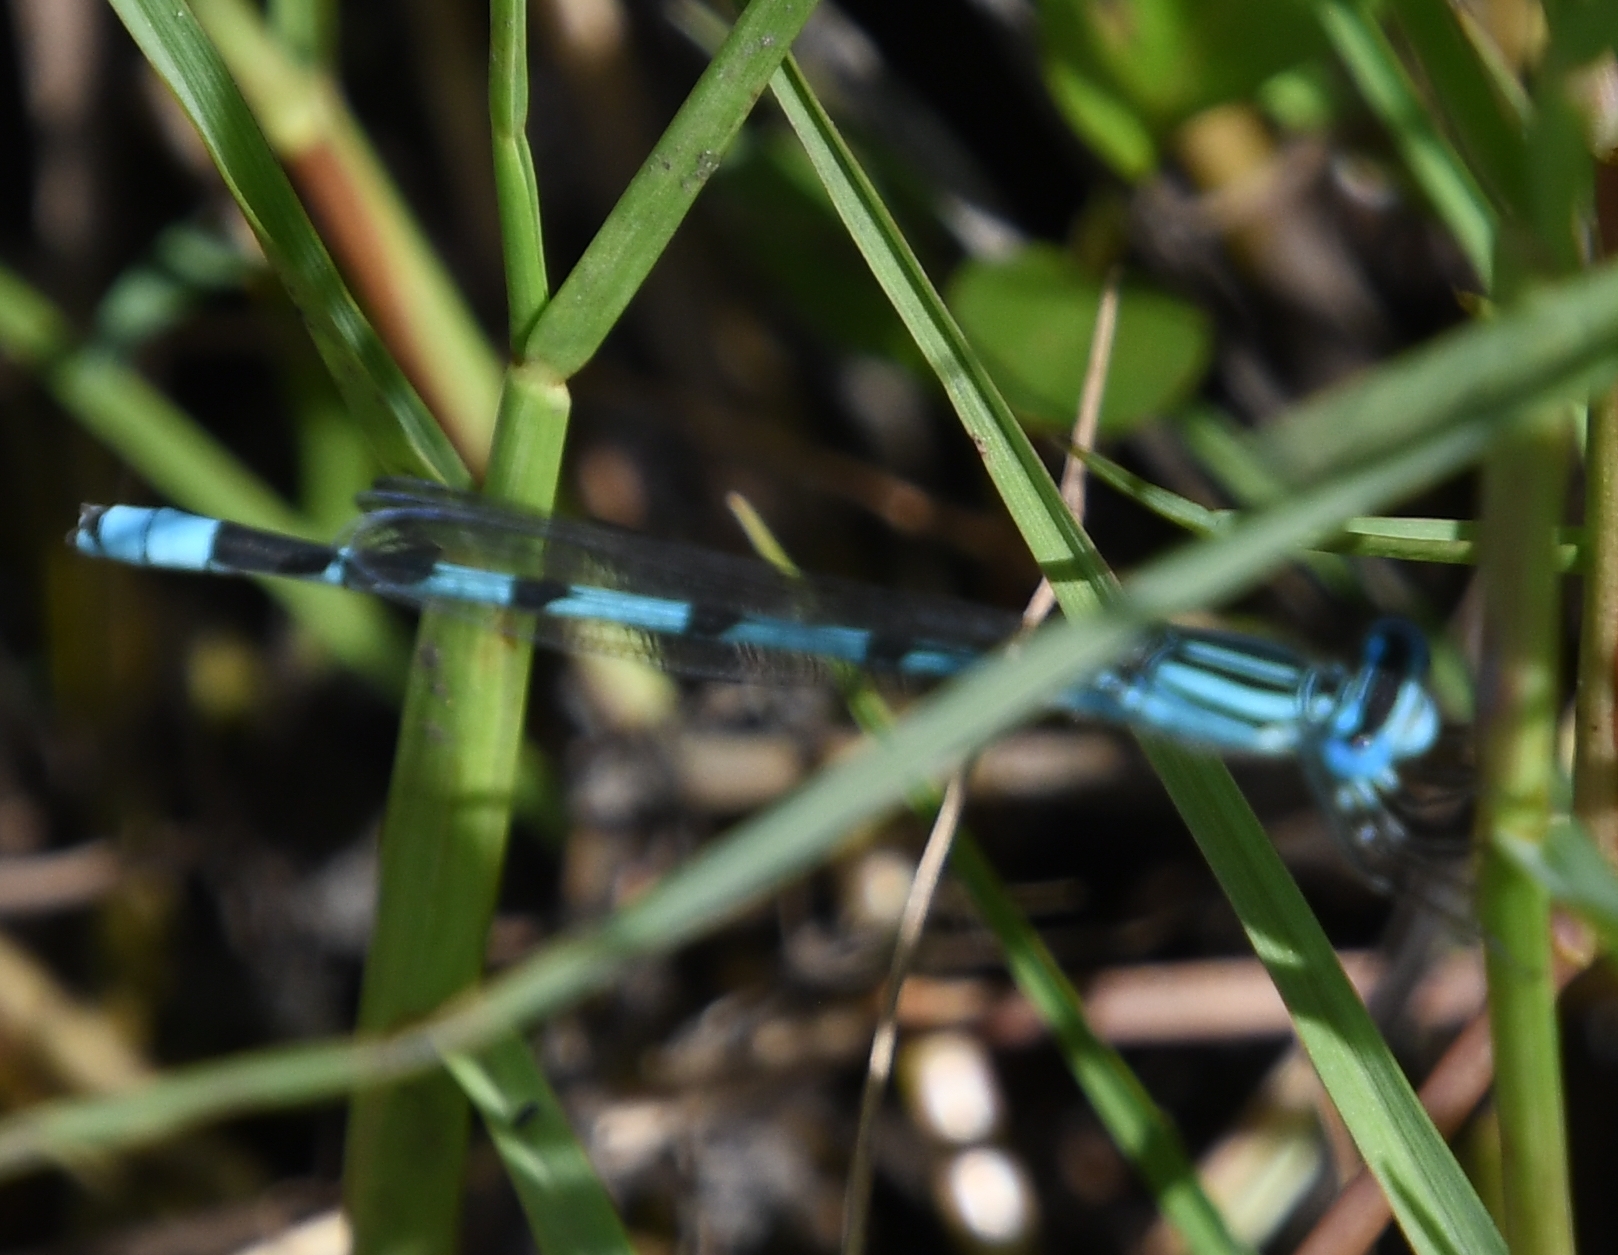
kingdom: Animalia
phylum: Arthropoda
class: Insecta
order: Odonata
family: Coenagrionidae
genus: Enallagma
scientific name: Enallagma durum
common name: Big bluet
